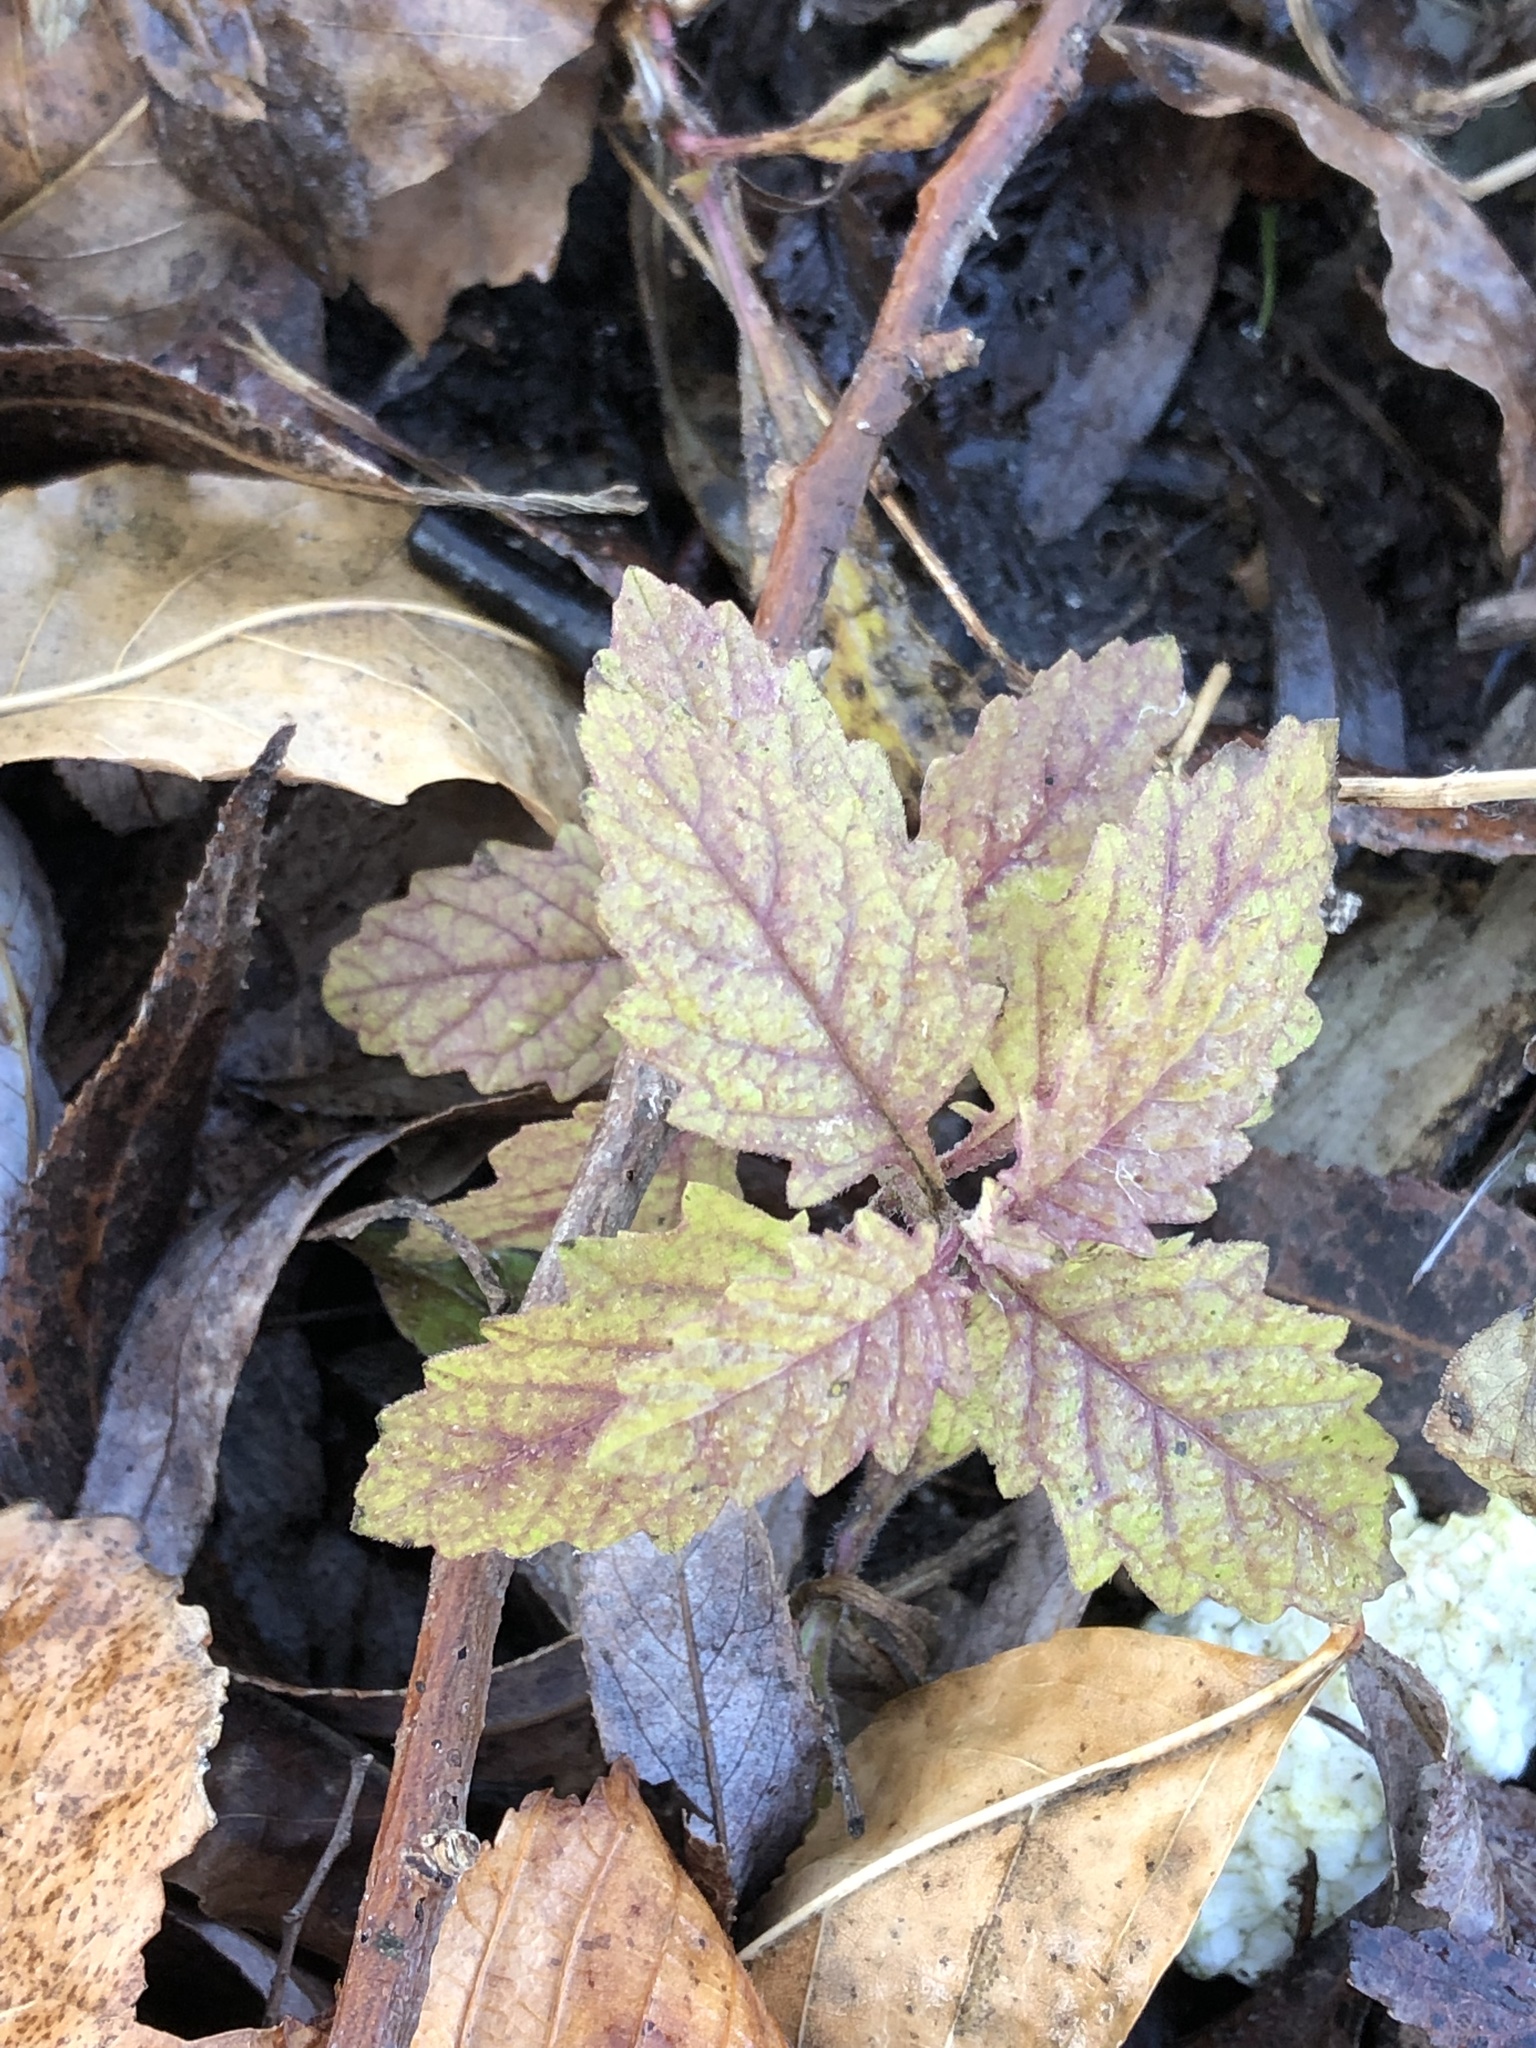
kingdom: Plantae
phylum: Tracheophyta
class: Magnoliopsida
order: Lamiales
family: Lamiaceae
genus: Lycopus
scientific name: Lycopus europaeus
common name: European bugleweed
